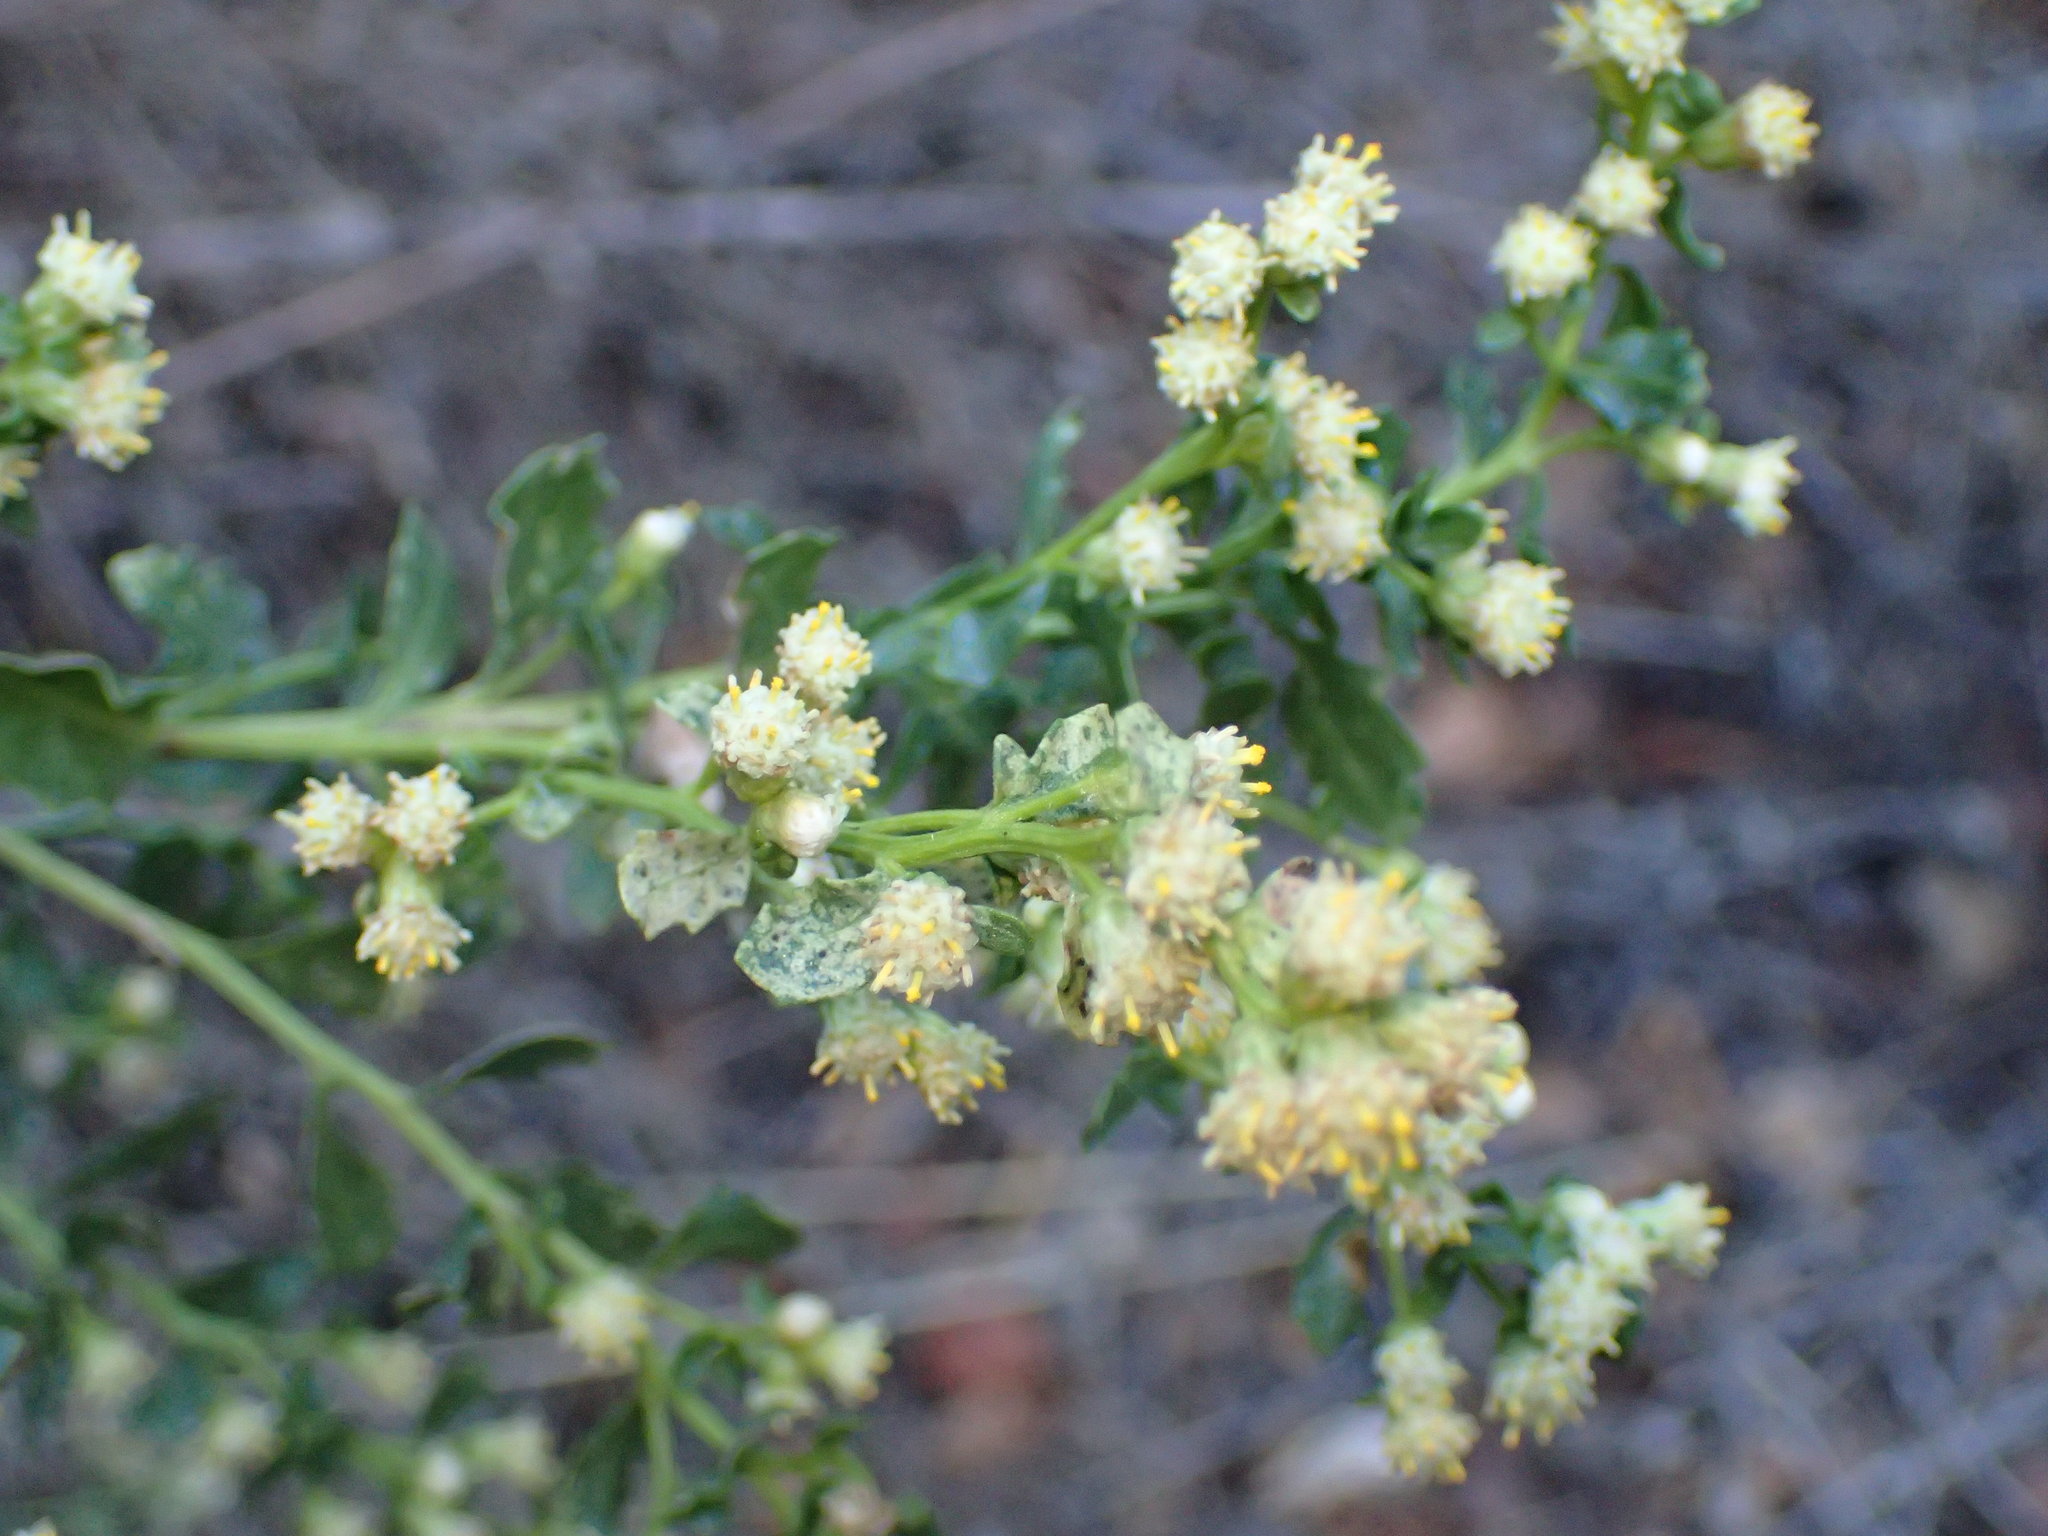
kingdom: Plantae
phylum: Tracheophyta
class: Magnoliopsida
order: Asterales
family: Asteraceae
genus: Baccharis
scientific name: Baccharis pilularis
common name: Coyotebrush
